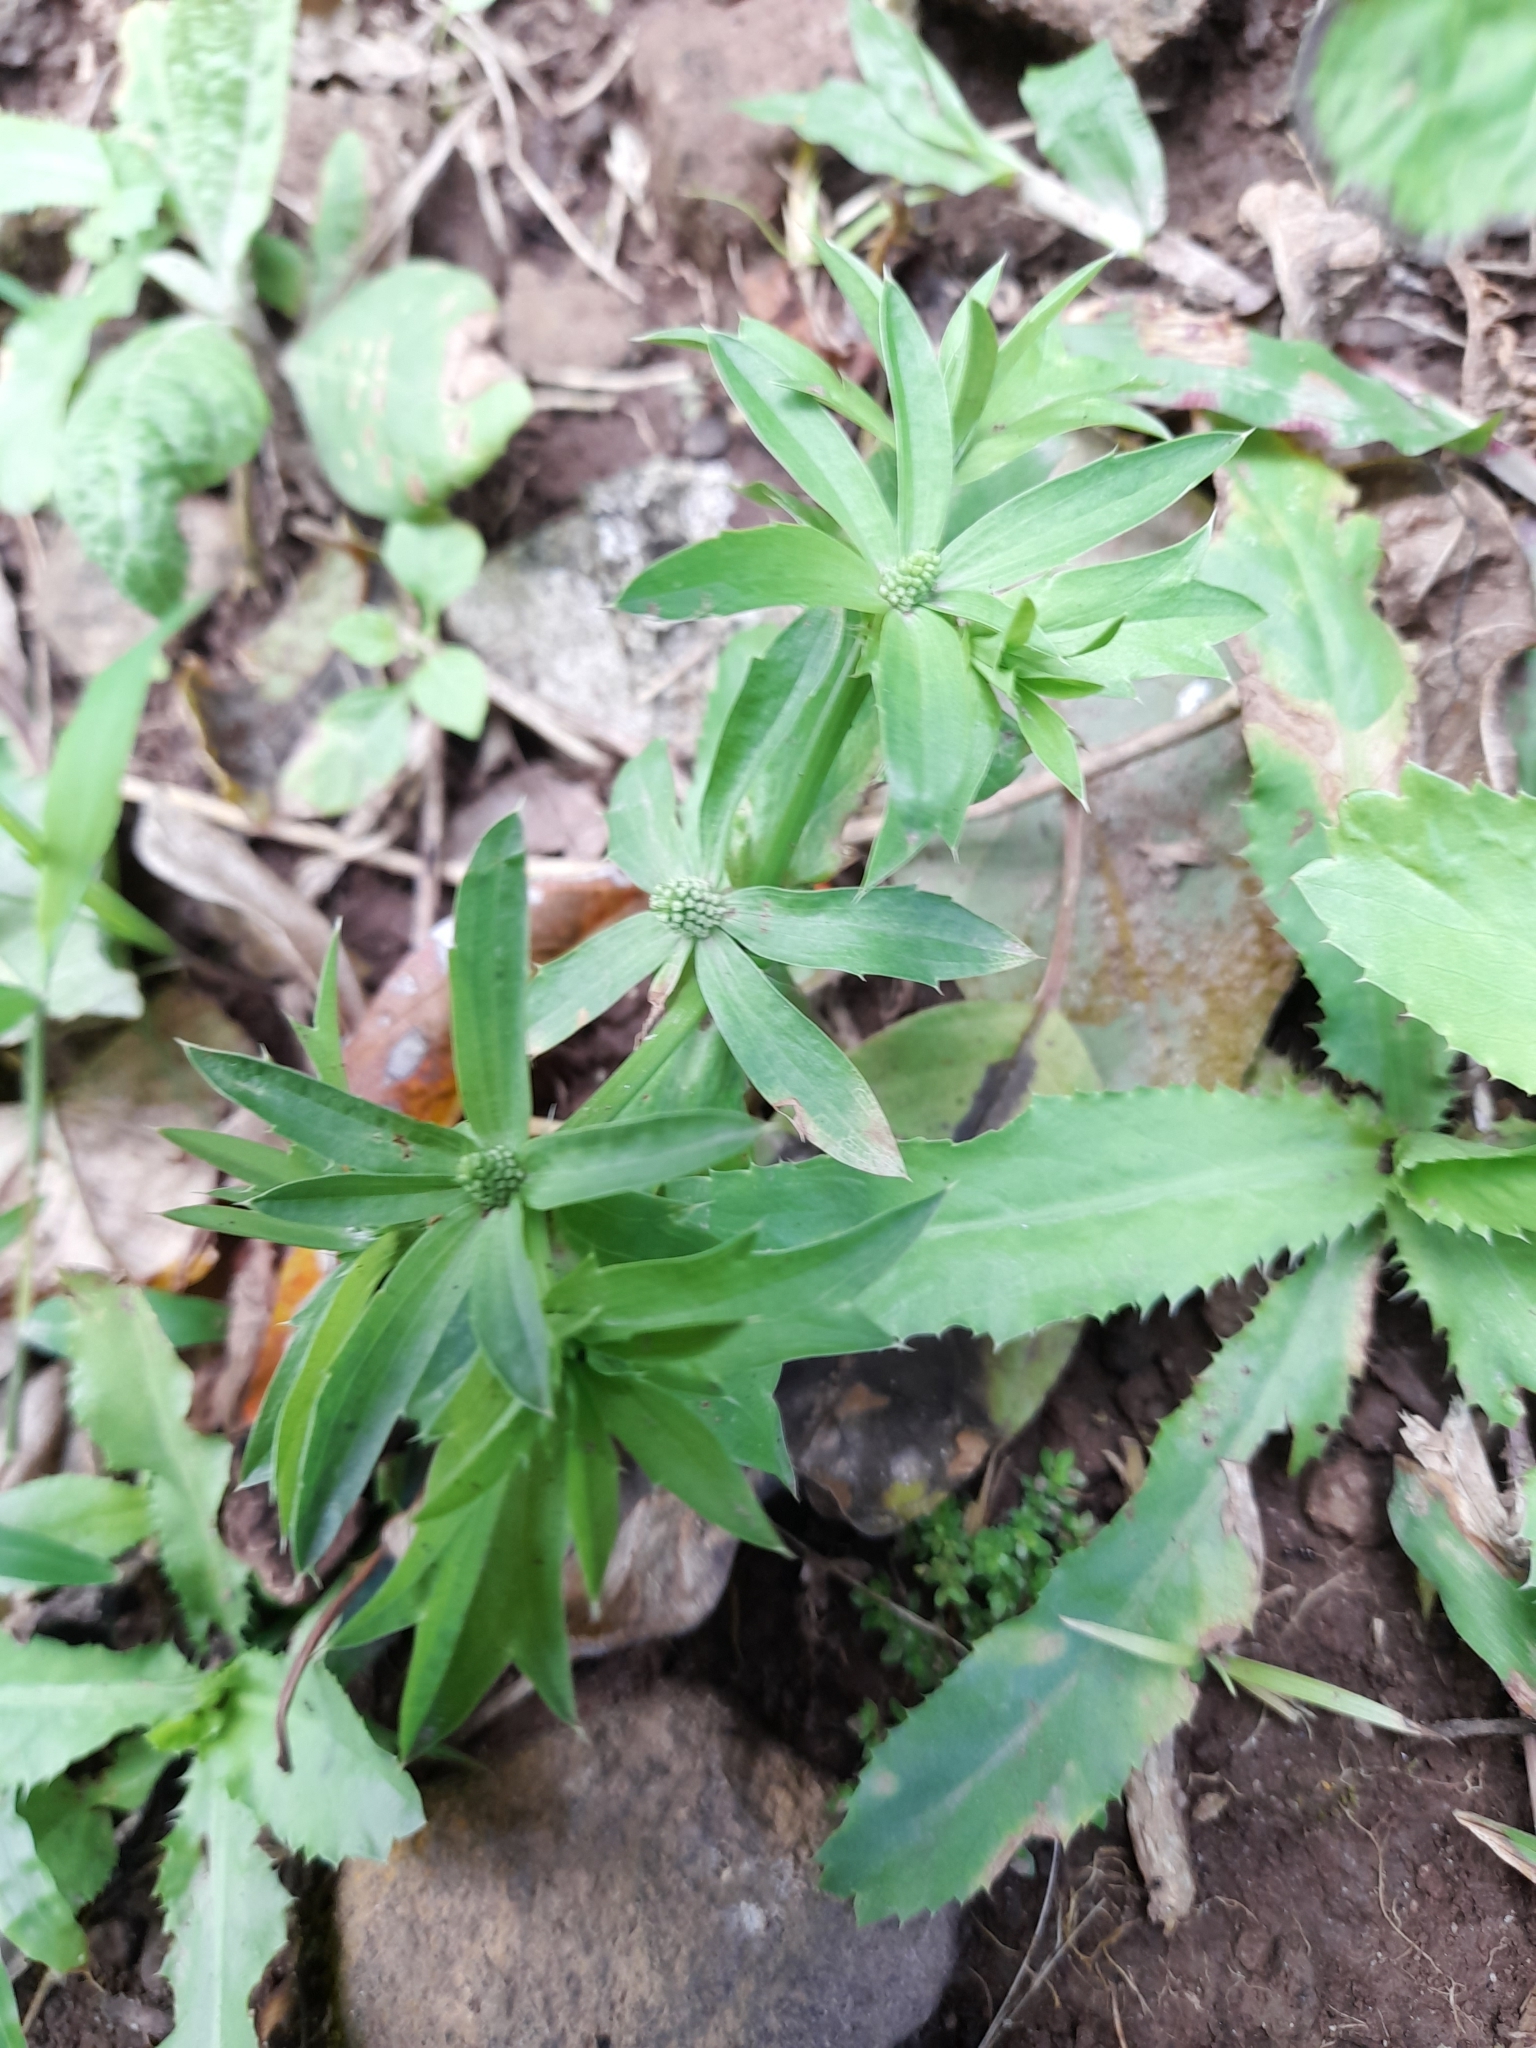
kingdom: Plantae
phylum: Tracheophyta
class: Magnoliopsida
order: Apiales
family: Apiaceae
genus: Eryngium
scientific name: Eryngium foetidum
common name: Fitweed
